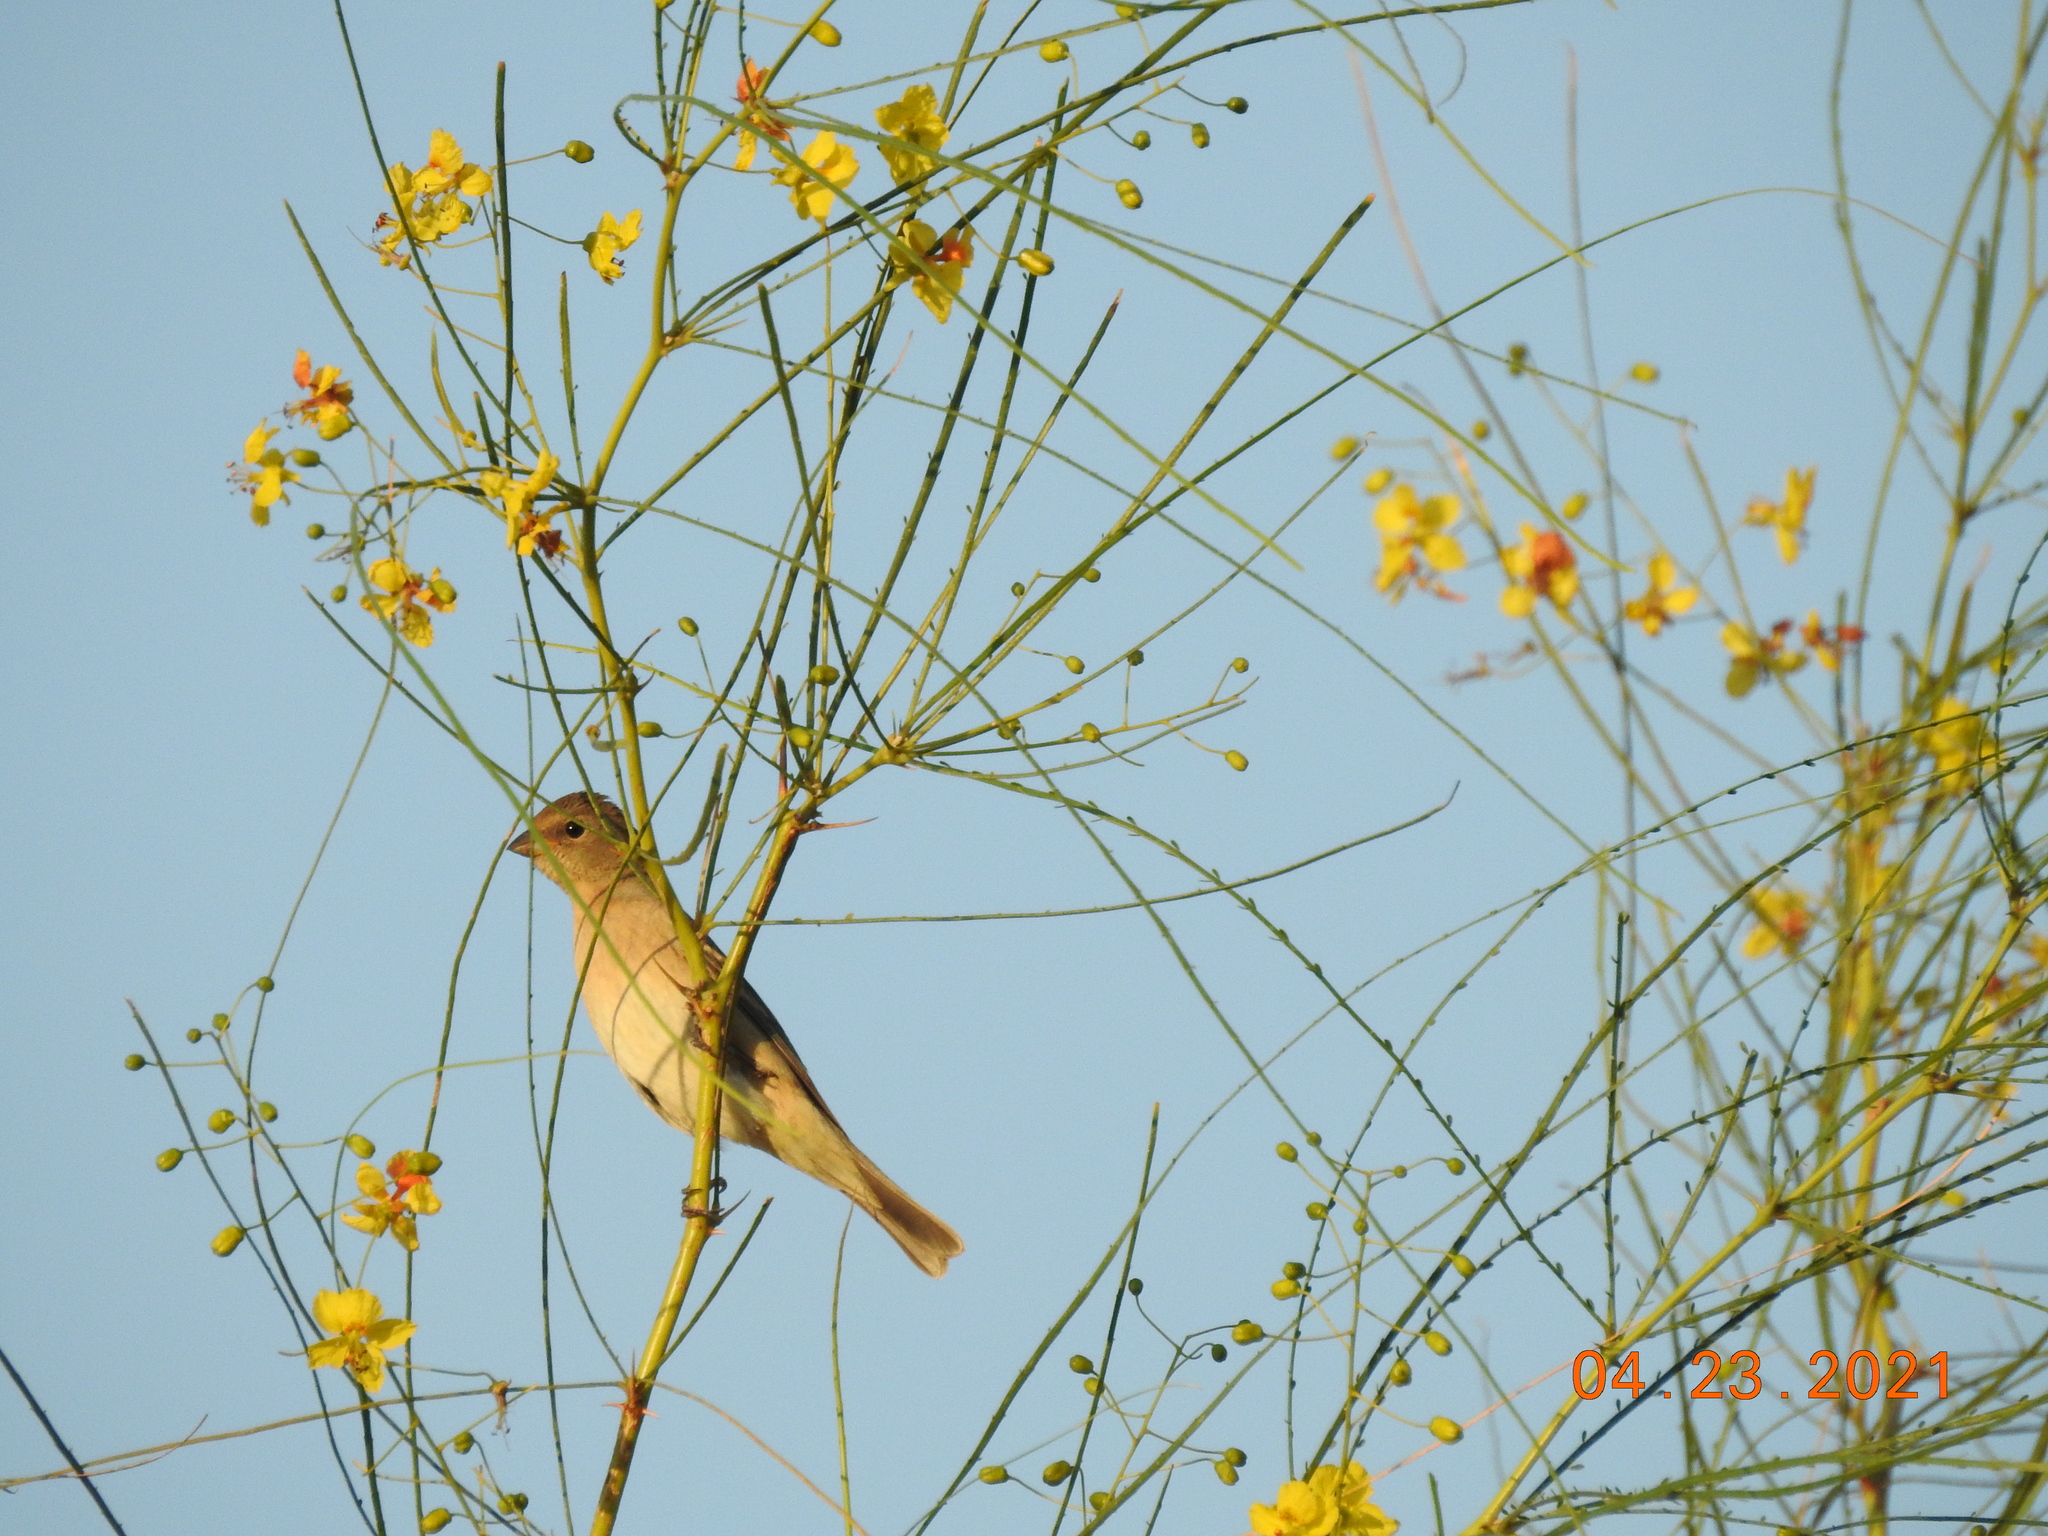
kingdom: Animalia
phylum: Chordata
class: Aves
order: Passeriformes
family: Cardinalidae
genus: Passerina
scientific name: Passerina amoena
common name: Lazuli bunting
